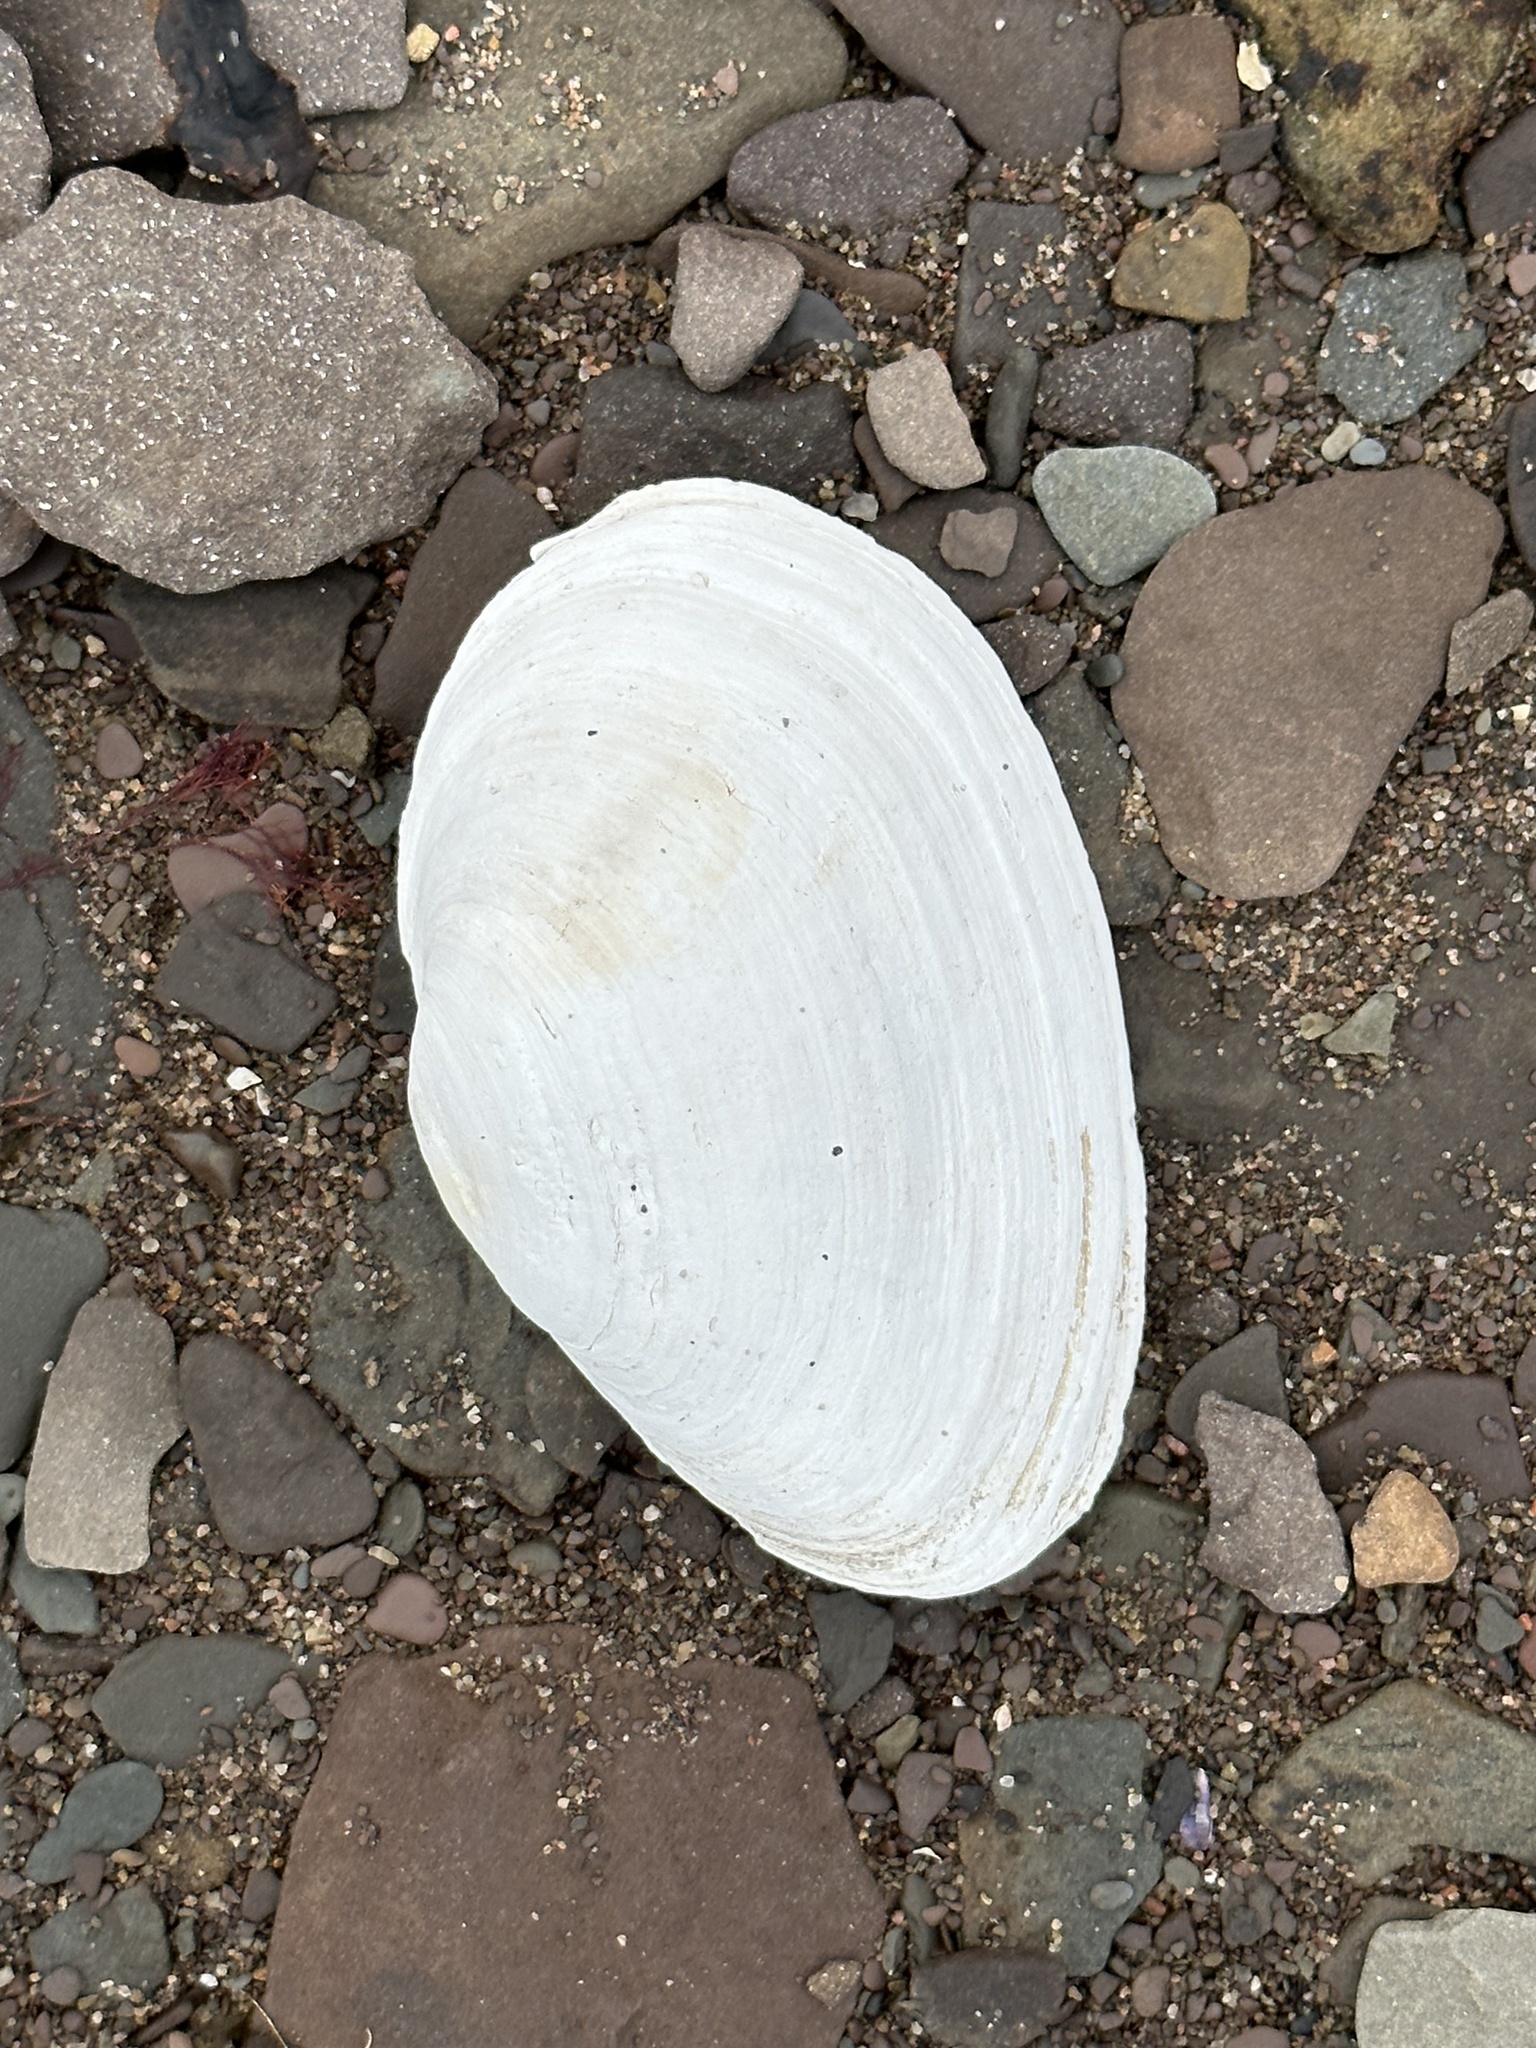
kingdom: Animalia
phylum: Mollusca
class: Bivalvia
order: Myida
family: Myidae
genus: Mya
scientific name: Mya arenaria
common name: Soft-shelled clam
